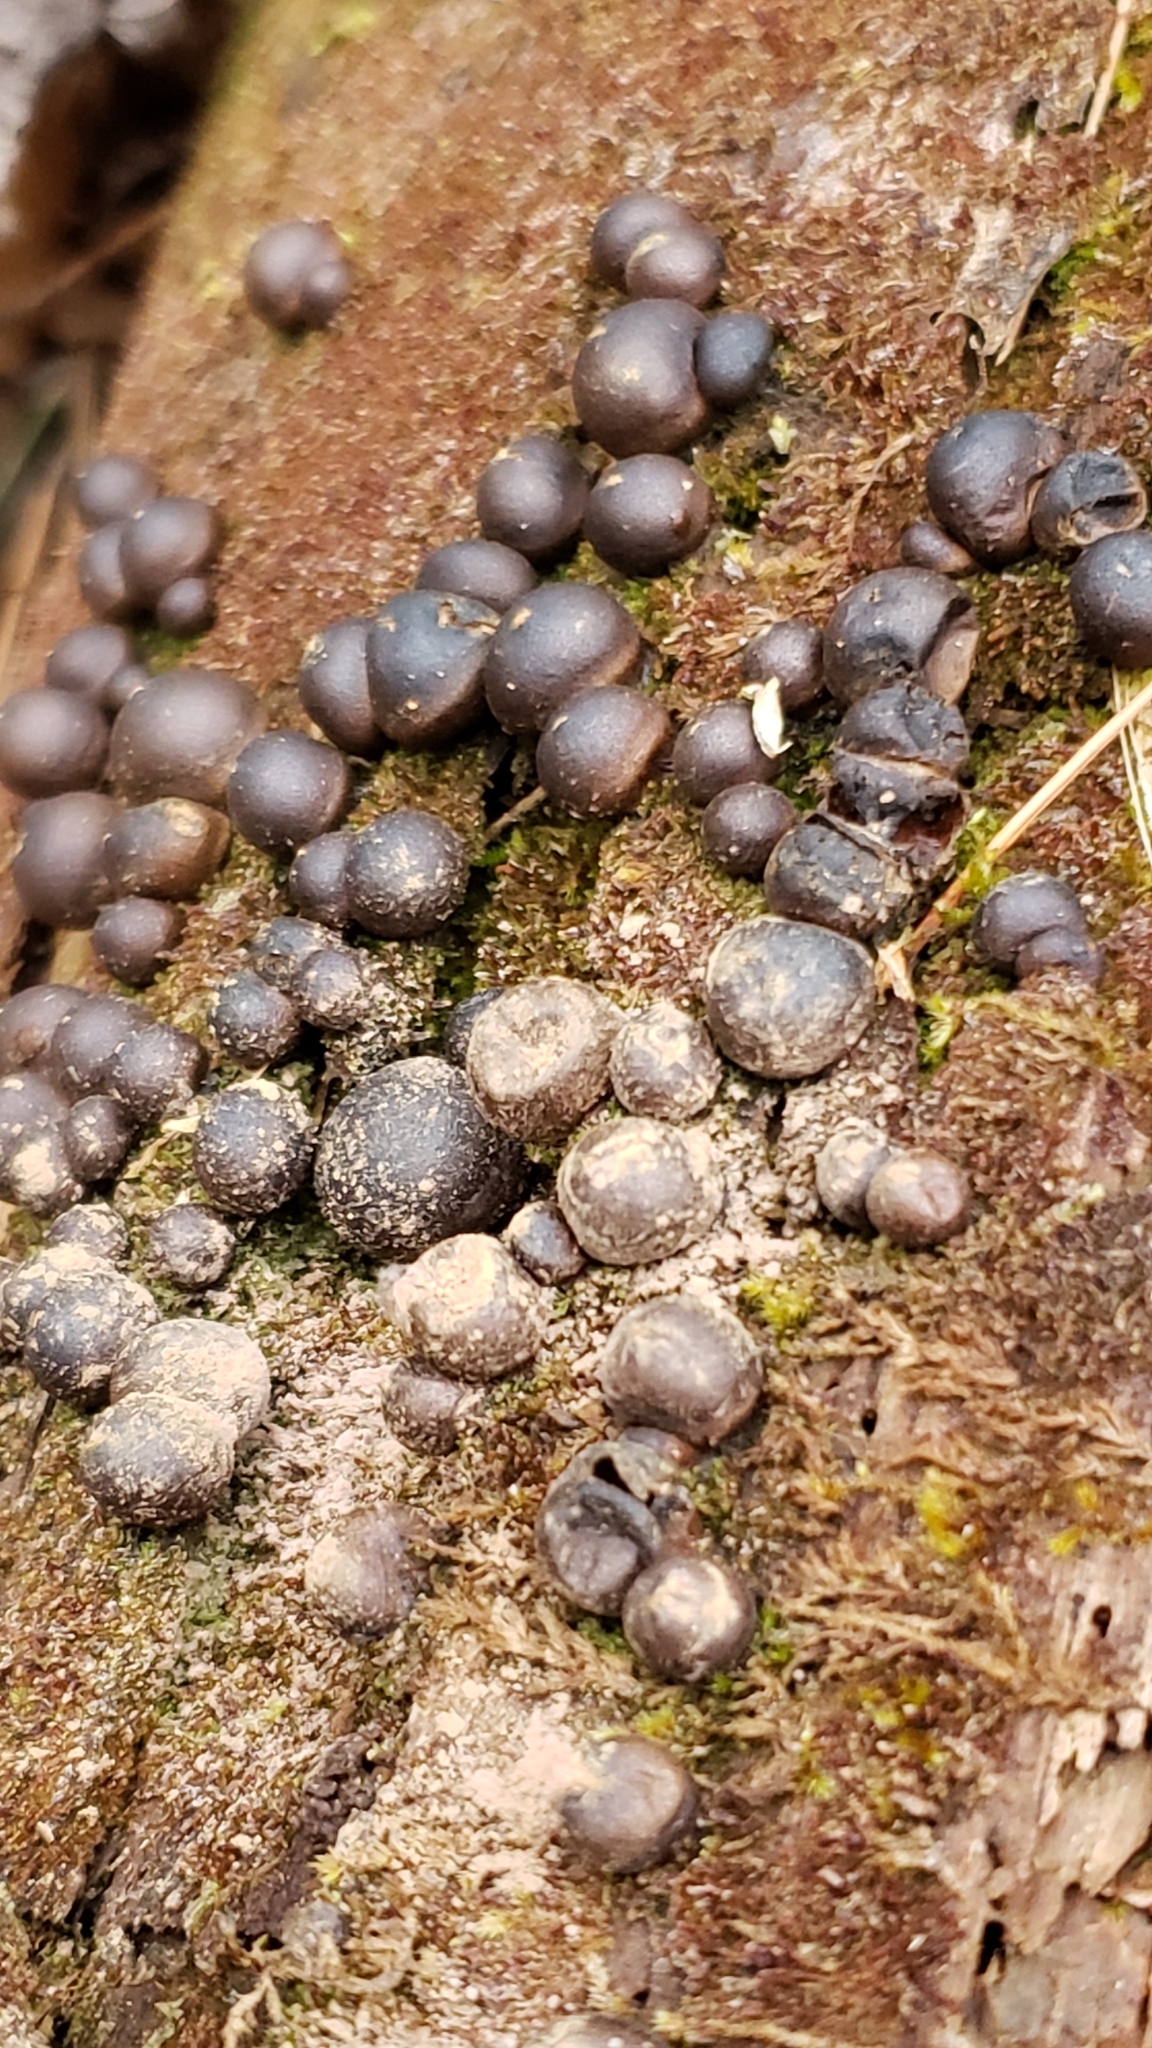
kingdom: Protozoa
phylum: Mycetozoa
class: Myxomycetes
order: Cribrariales
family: Tubiferaceae
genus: Lycogala
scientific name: Lycogala epidendrum
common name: Wolf's milk
